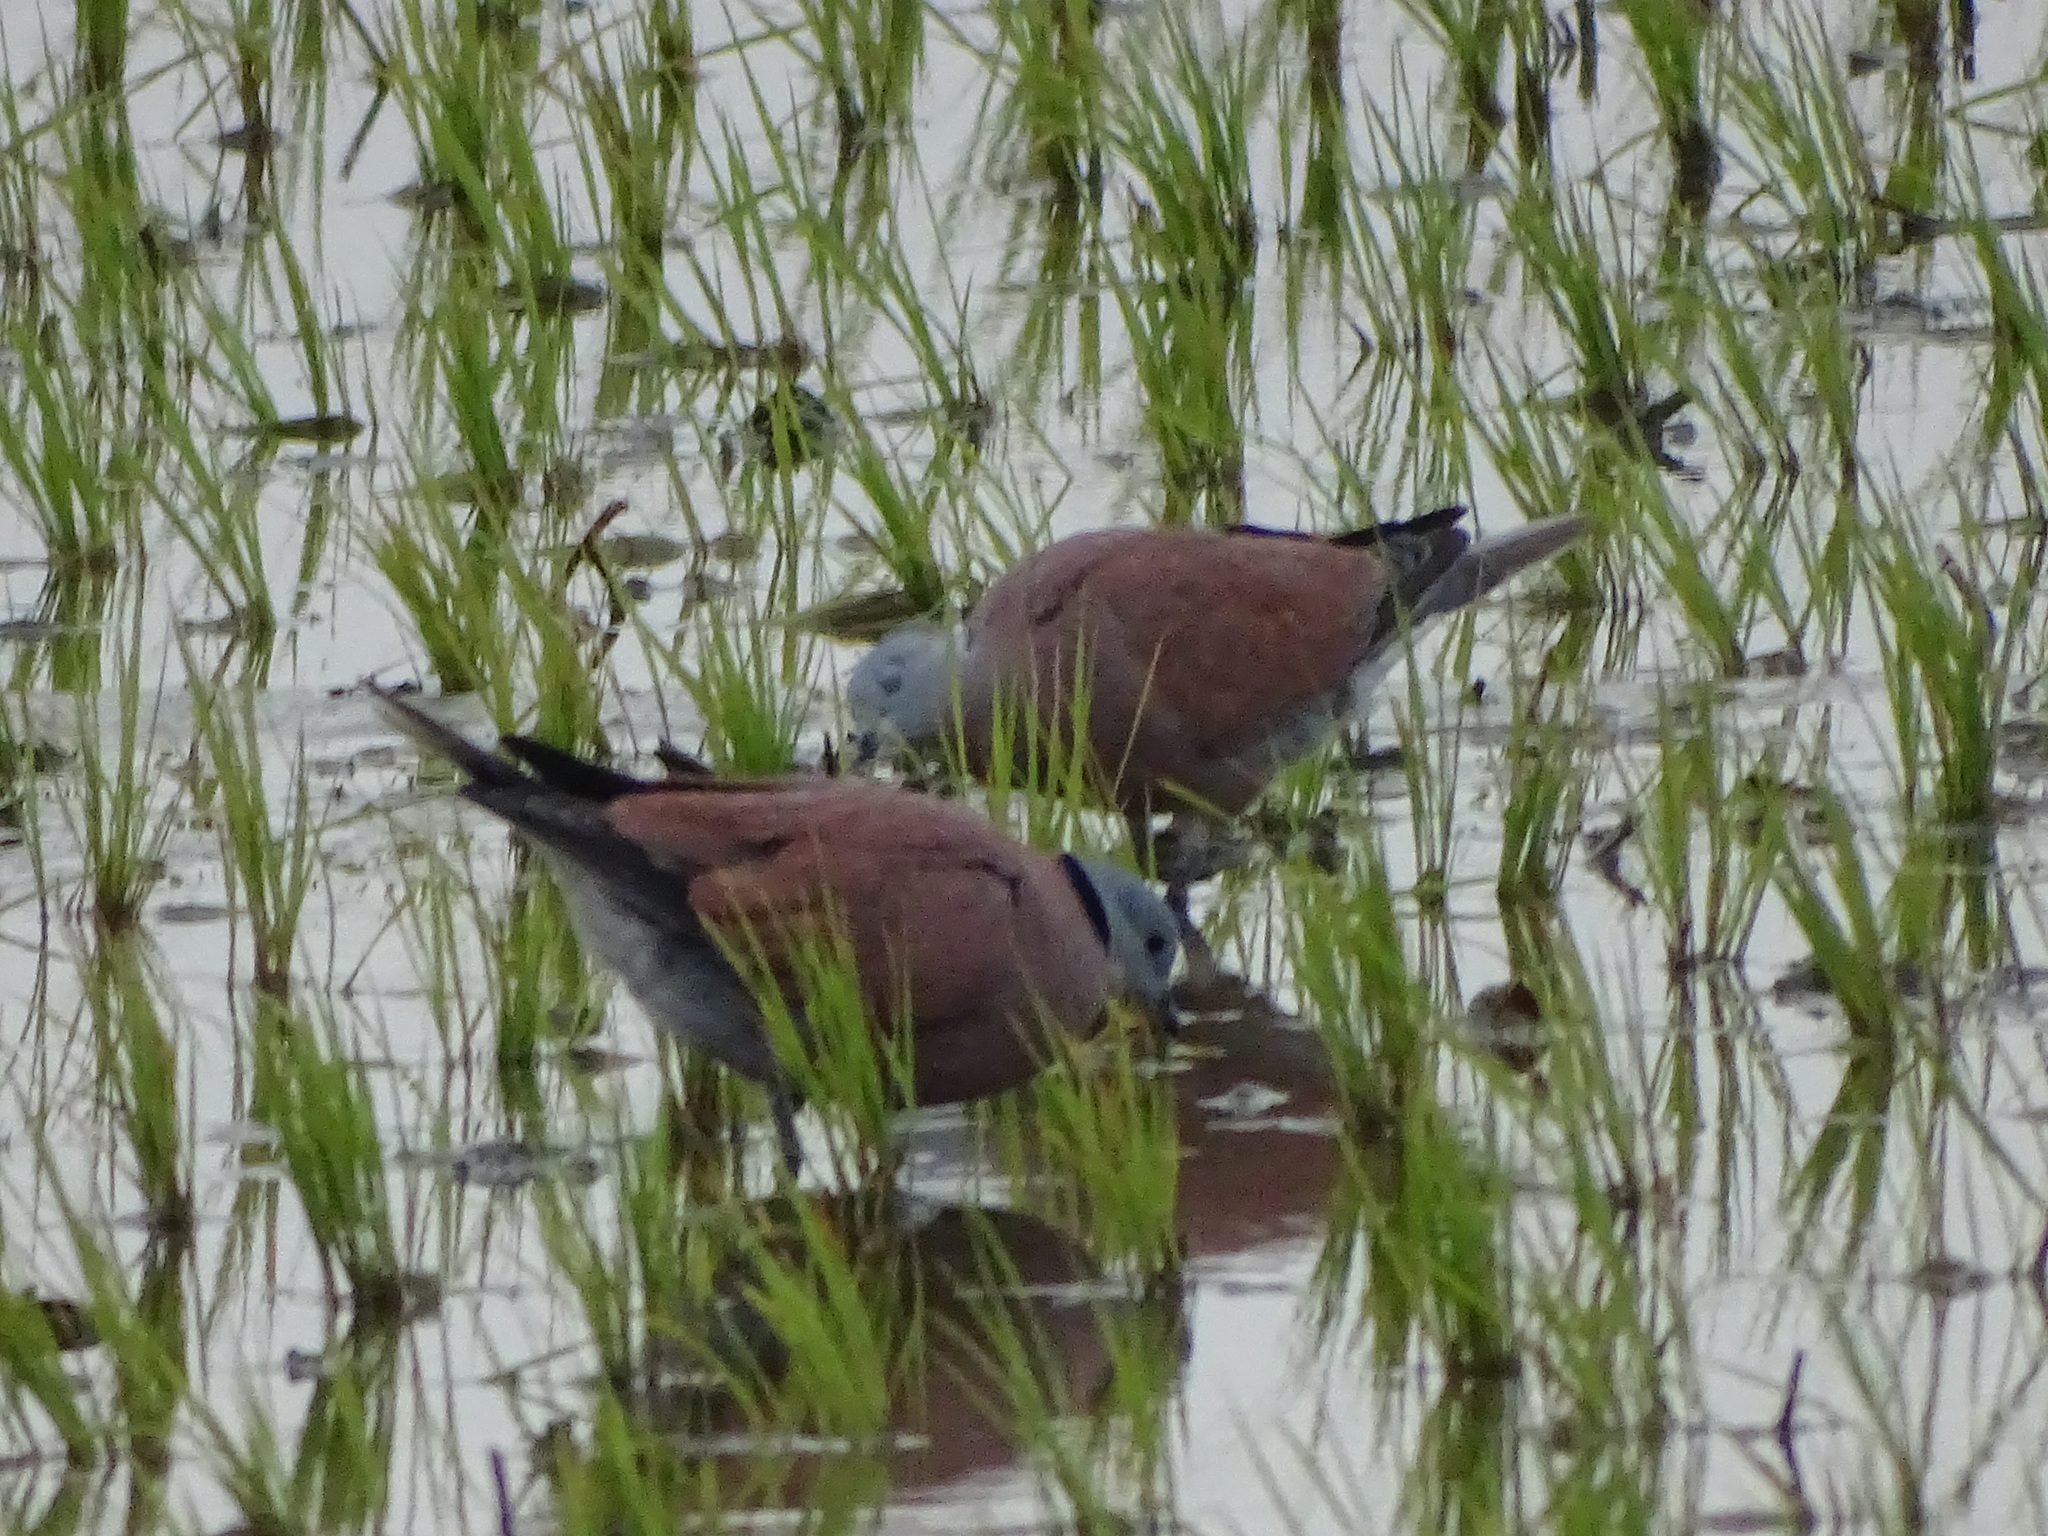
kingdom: Animalia
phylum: Chordata
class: Aves
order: Columbiformes
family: Columbidae
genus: Streptopelia
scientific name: Streptopelia tranquebarica
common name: Red turtle dove
